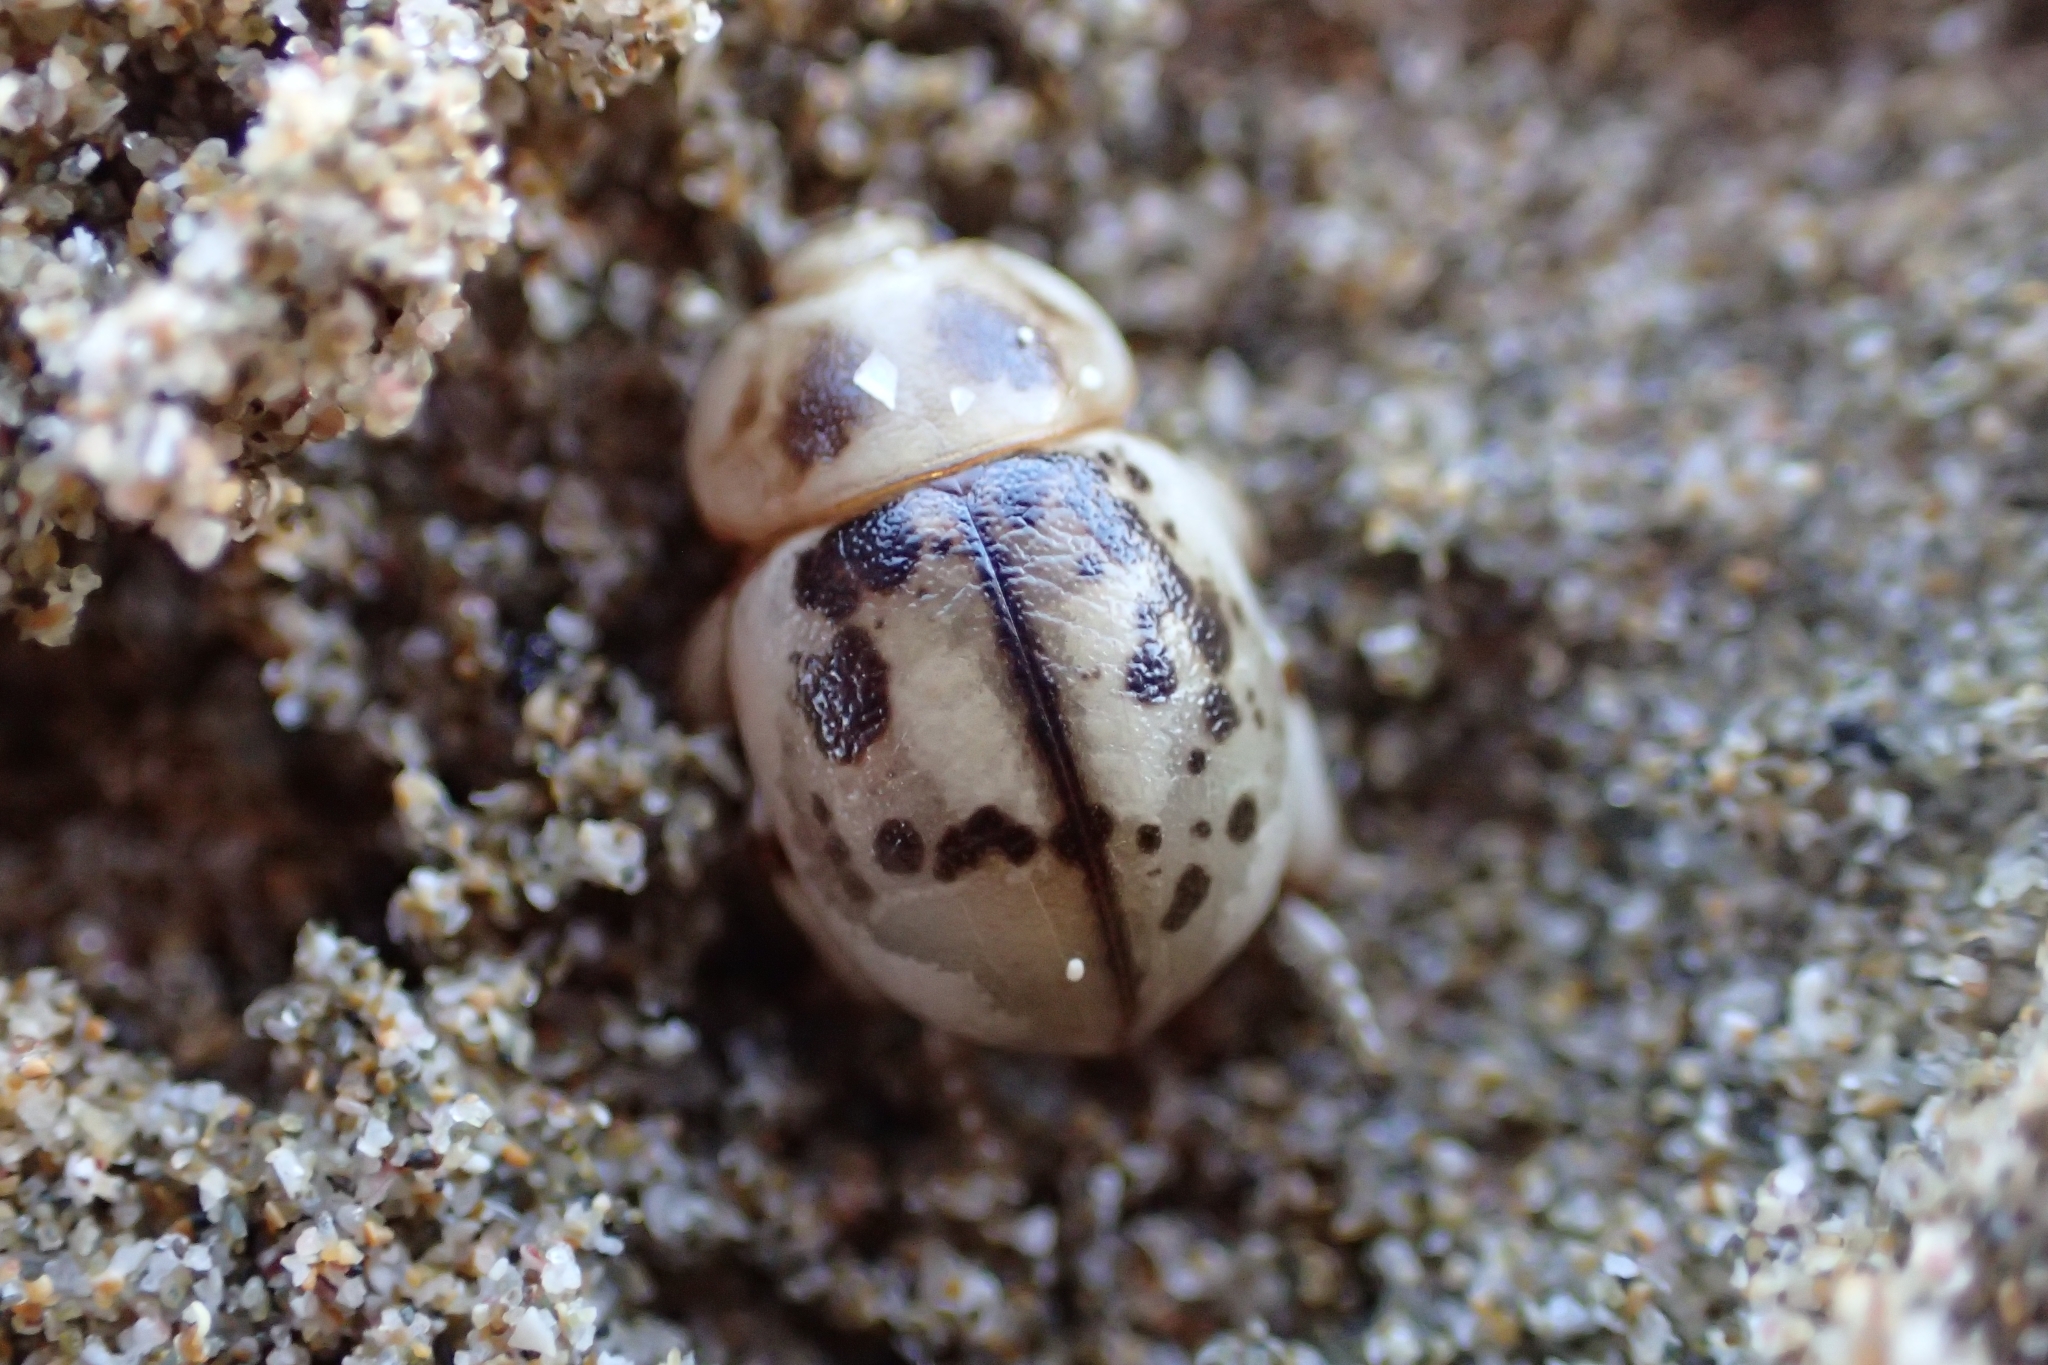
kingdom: Animalia
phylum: Arthropoda
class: Insecta
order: Coleoptera
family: Tenebrionidae
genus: Chaerodes
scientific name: Chaerodes trachyscelides
